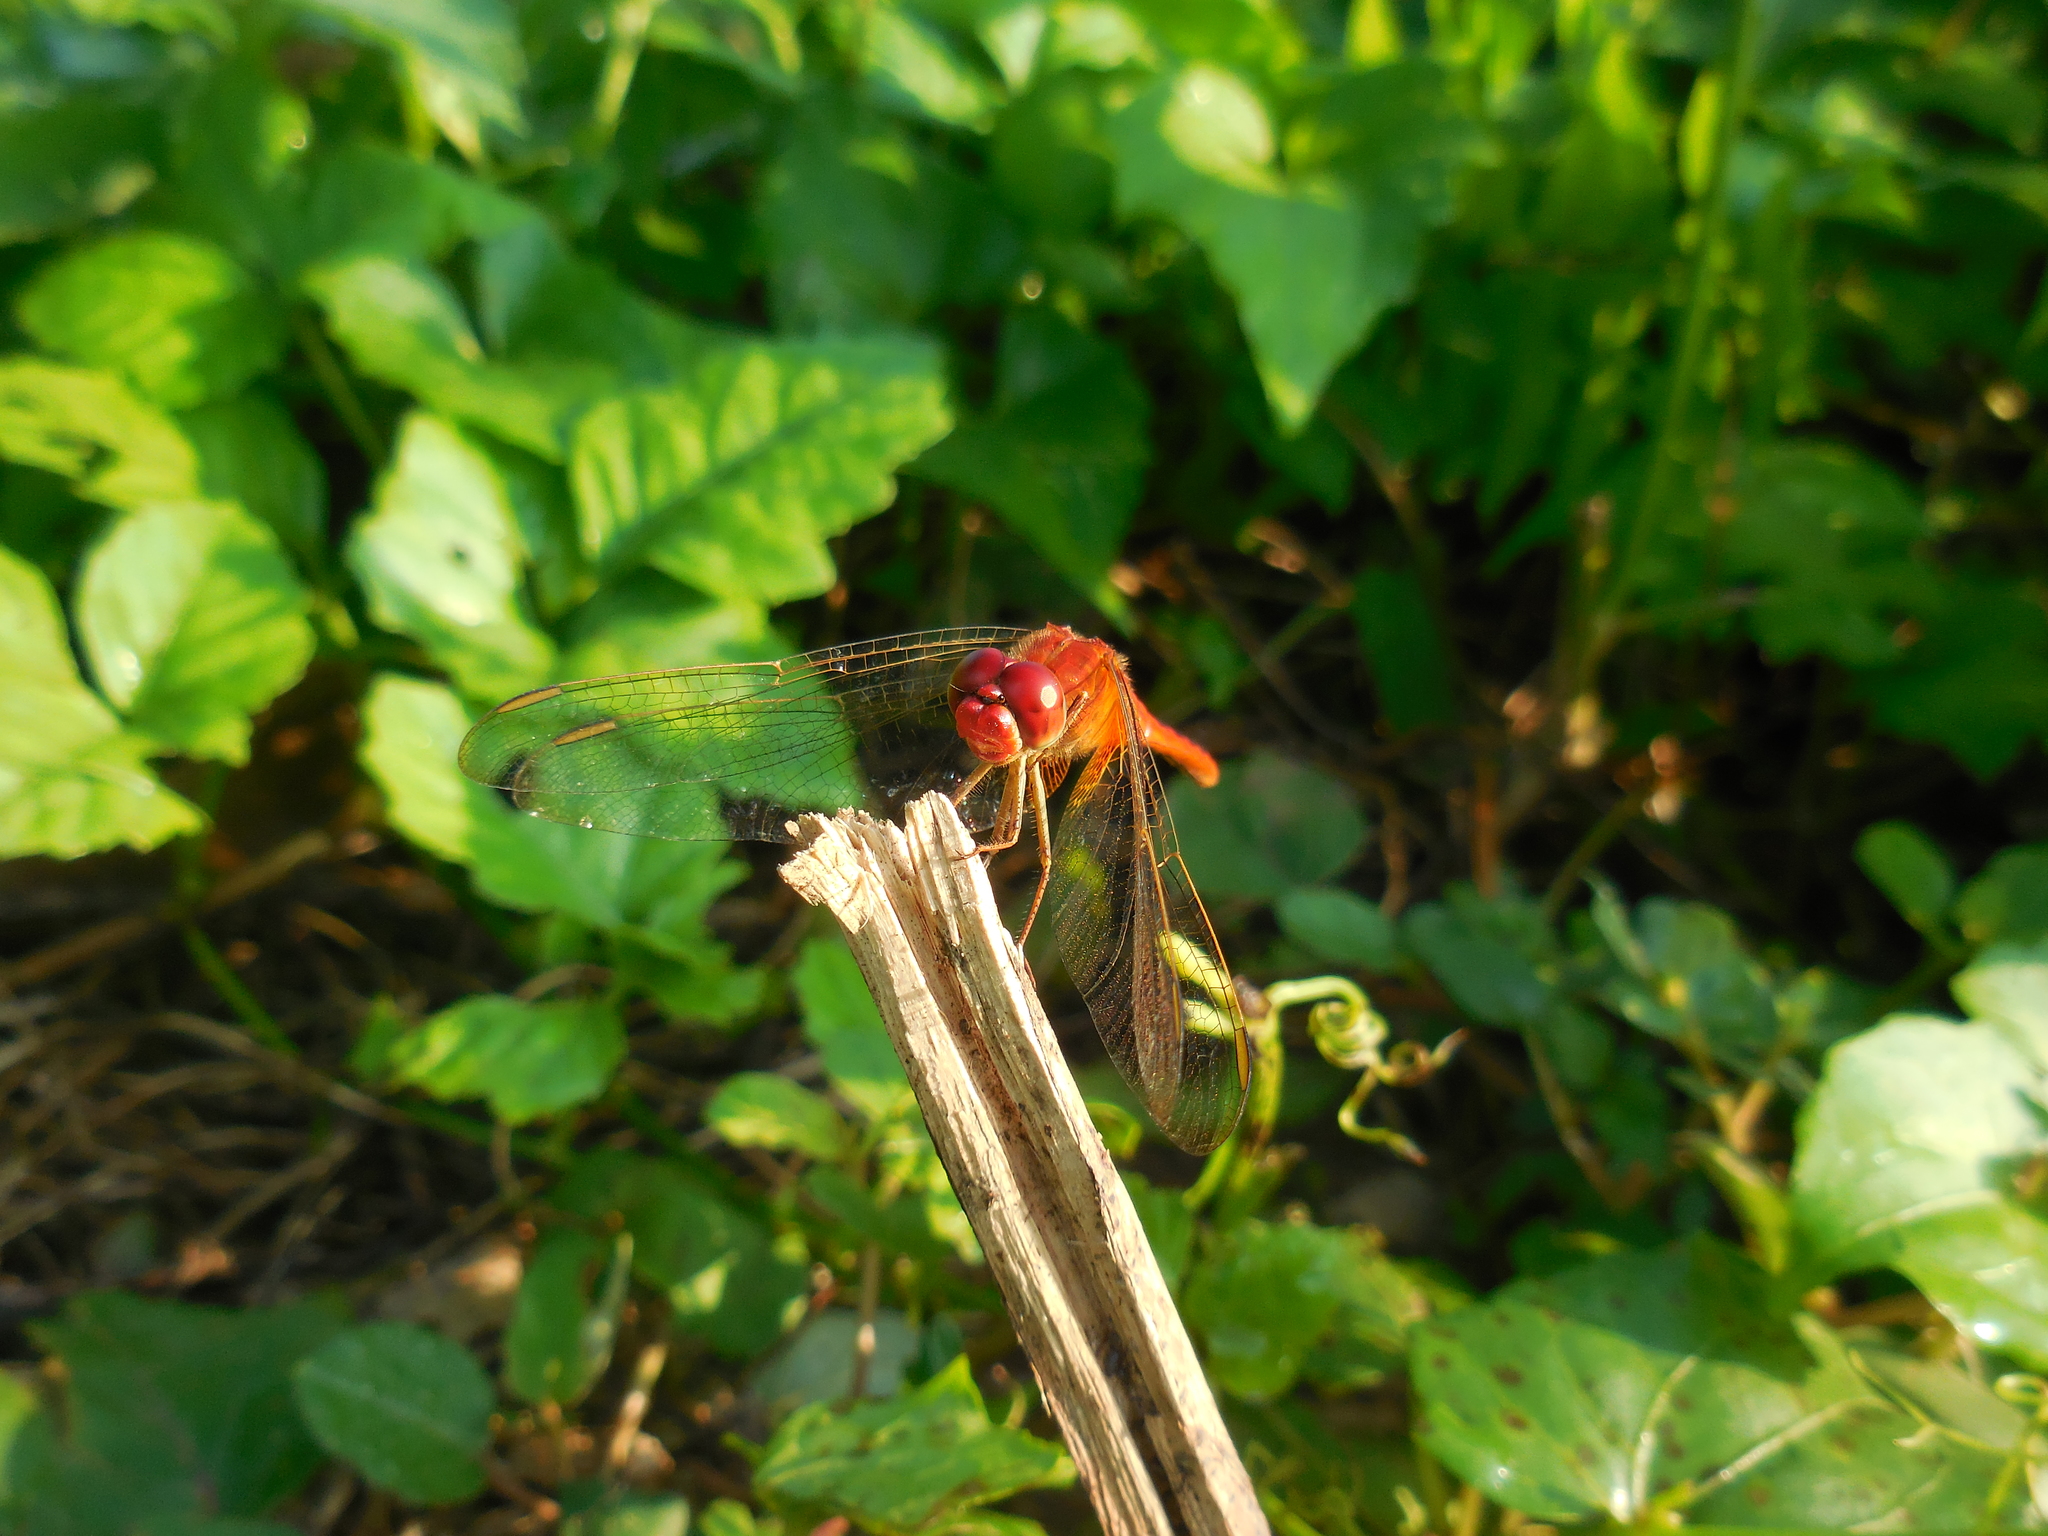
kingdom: Animalia
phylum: Arthropoda
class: Insecta
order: Odonata
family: Libellulidae
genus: Crocothemis
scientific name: Crocothemis servilia
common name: Scarlet skimmer
